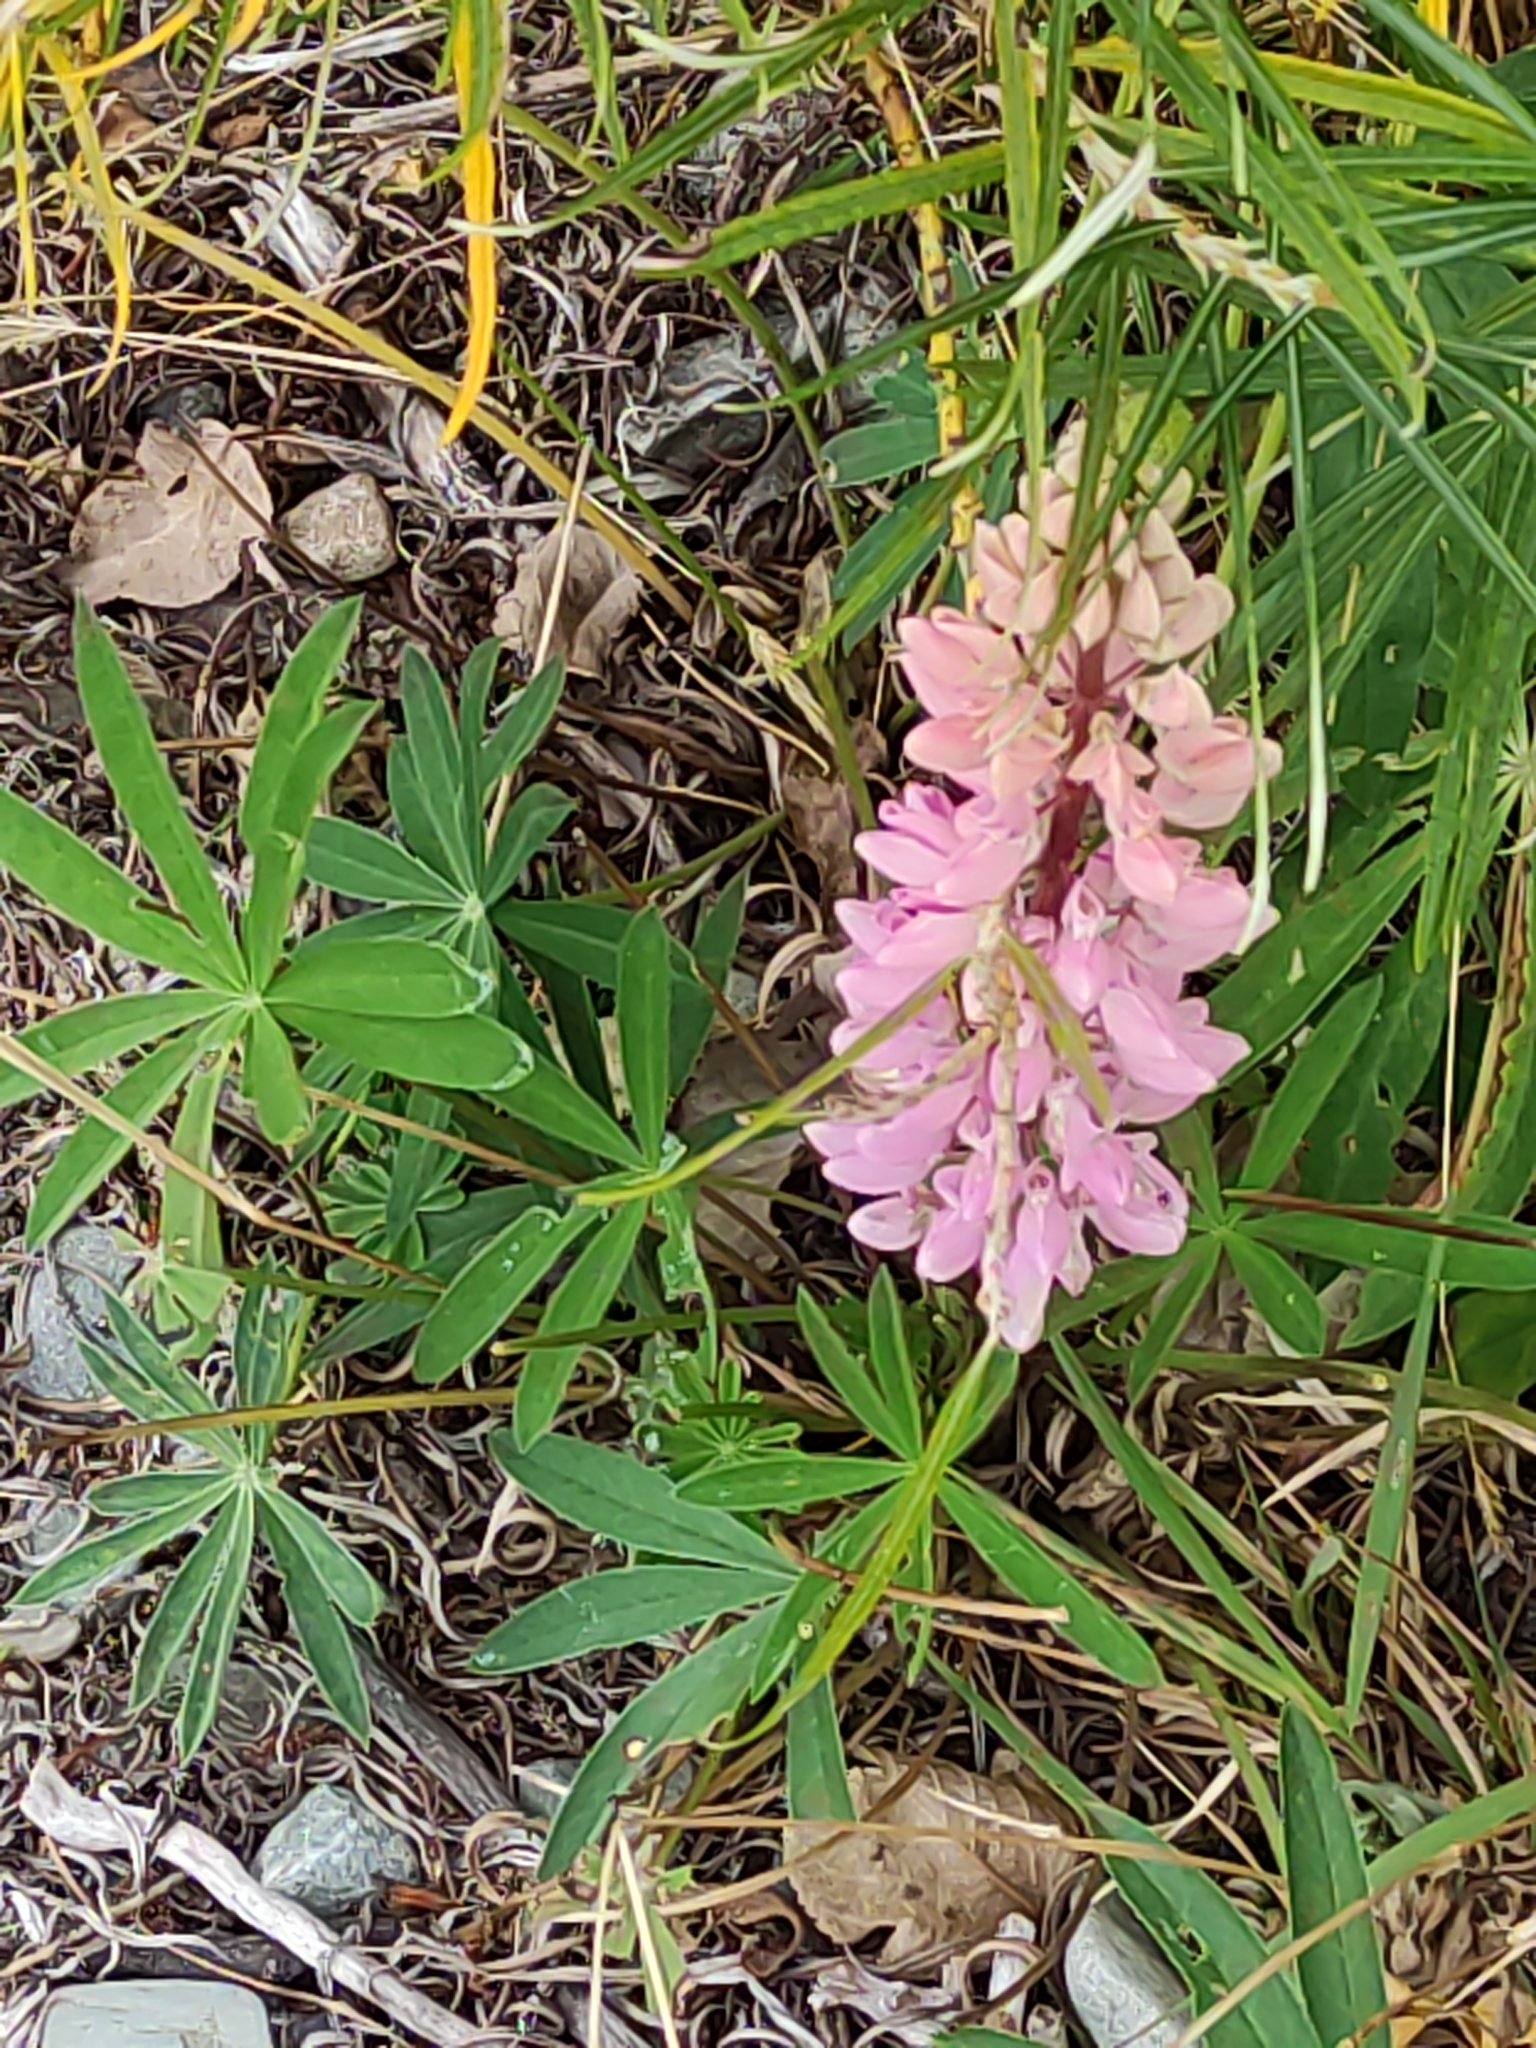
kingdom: Plantae
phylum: Tracheophyta
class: Magnoliopsida
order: Fabales
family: Fabaceae
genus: Lupinus
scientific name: Lupinus polyphyllus
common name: Garden lupin
